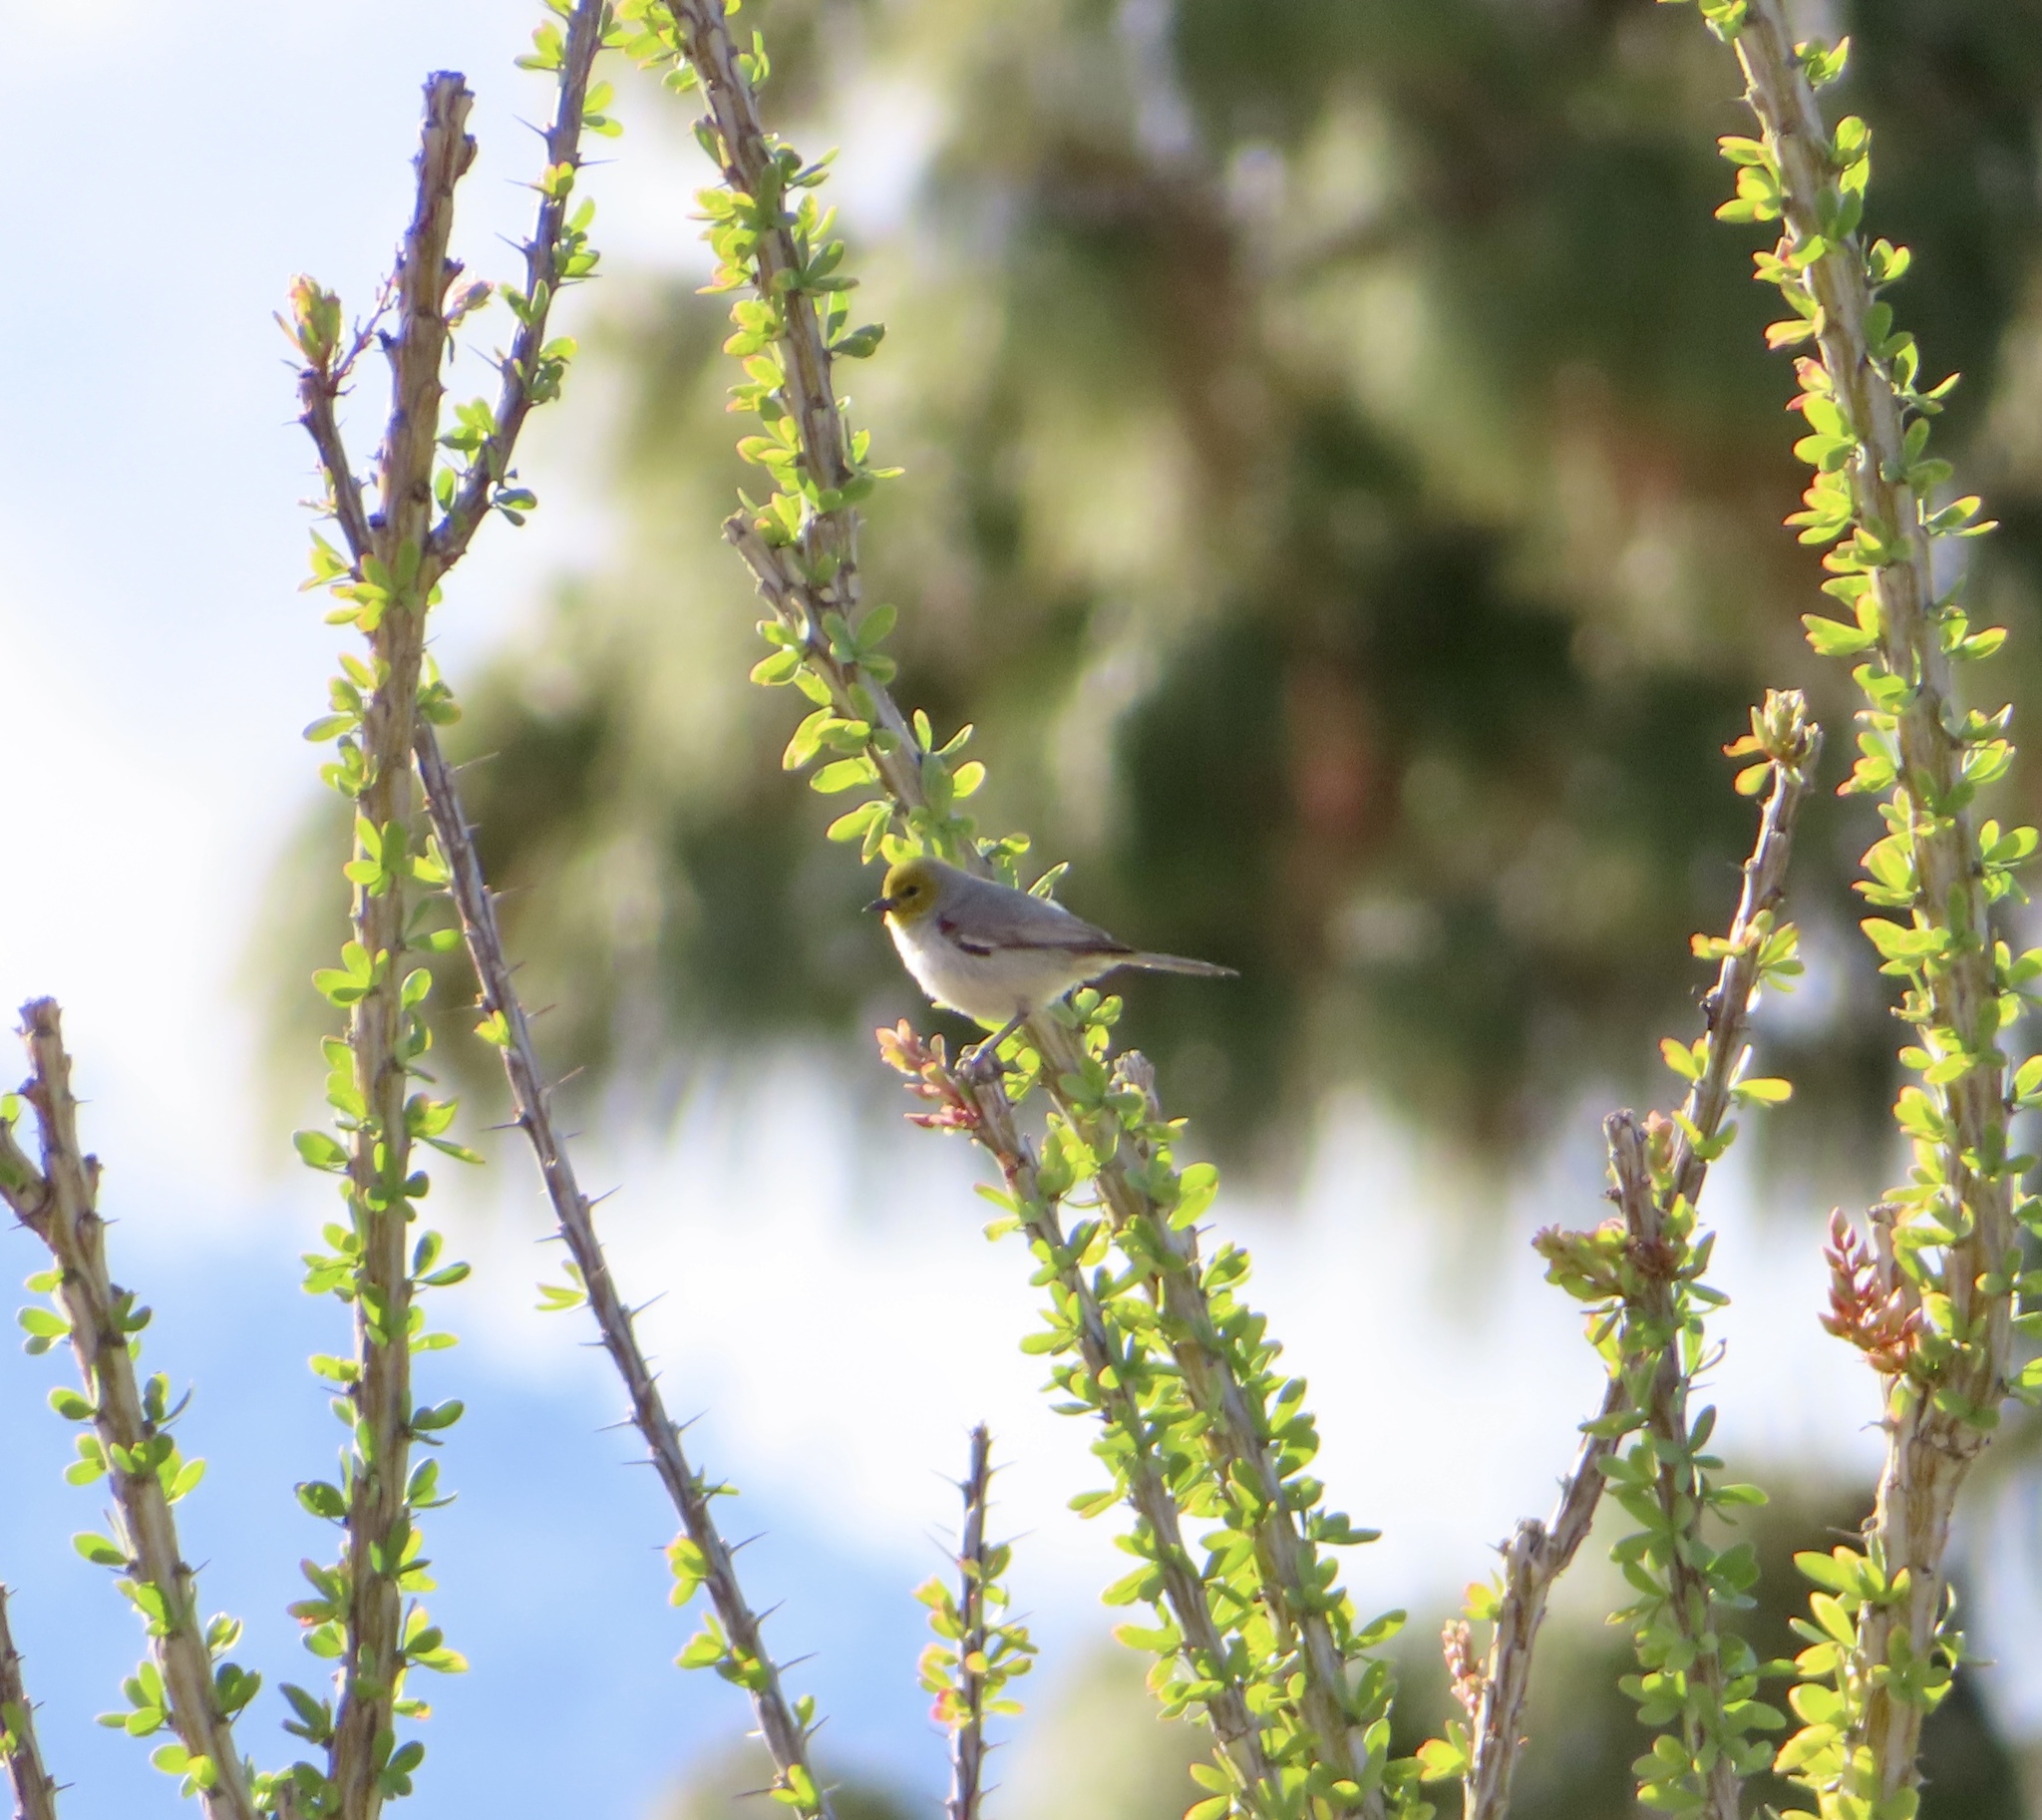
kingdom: Animalia
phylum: Chordata
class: Aves
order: Passeriformes
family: Remizidae
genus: Auriparus
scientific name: Auriparus flaviceps
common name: Verdin
